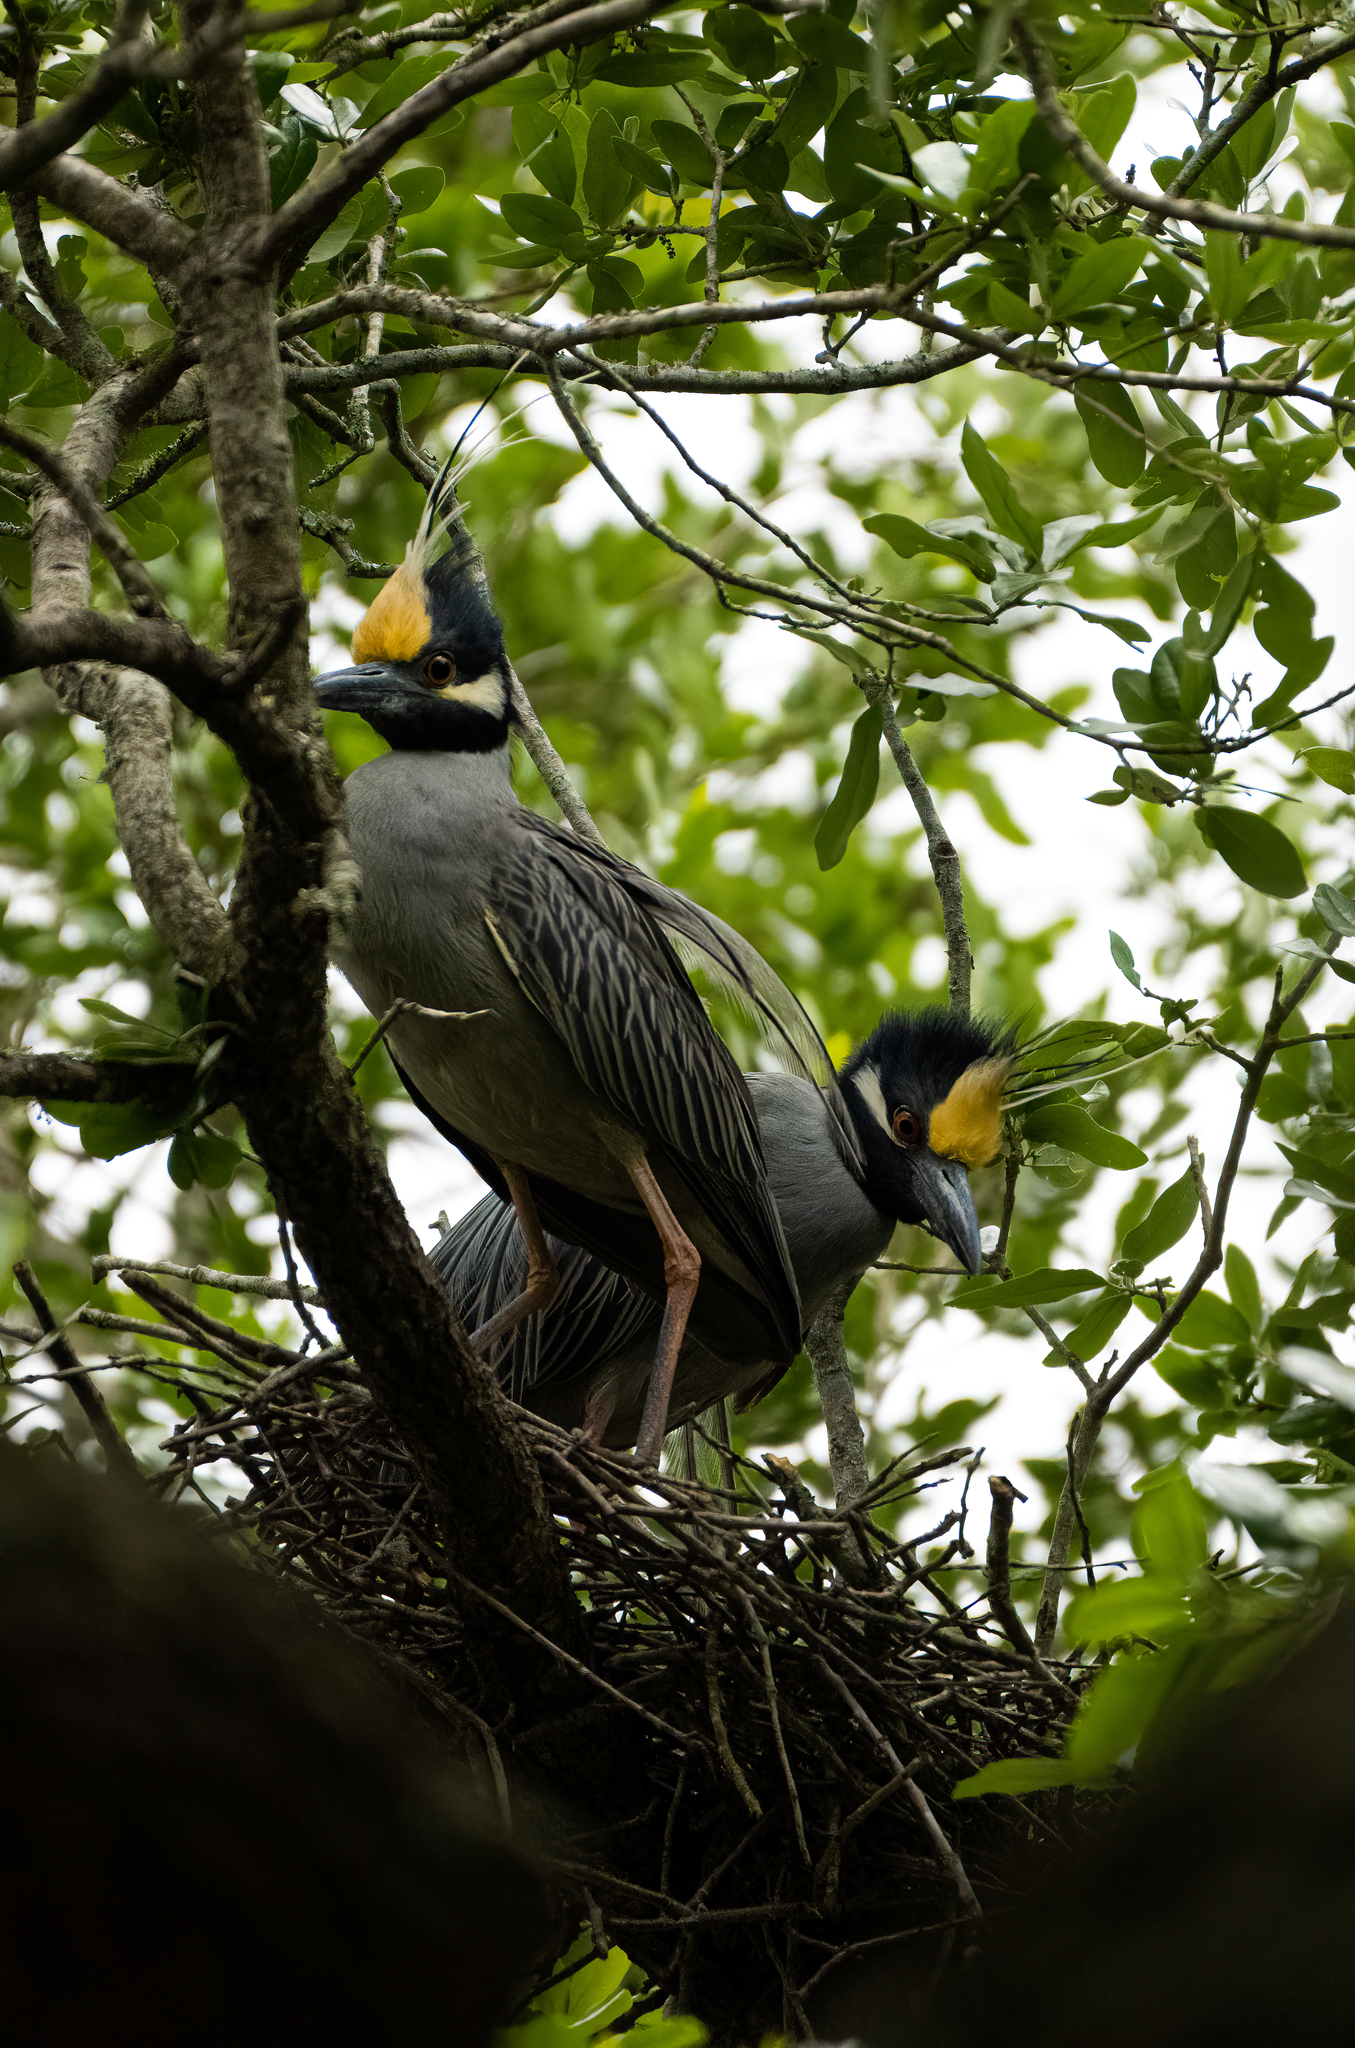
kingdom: Animalia
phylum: Chordata
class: Aves
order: Pelecaniformes
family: Ardeidae
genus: Nyctanassa
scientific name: Nyctanassa violacea
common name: Yellow-crowned night heron
